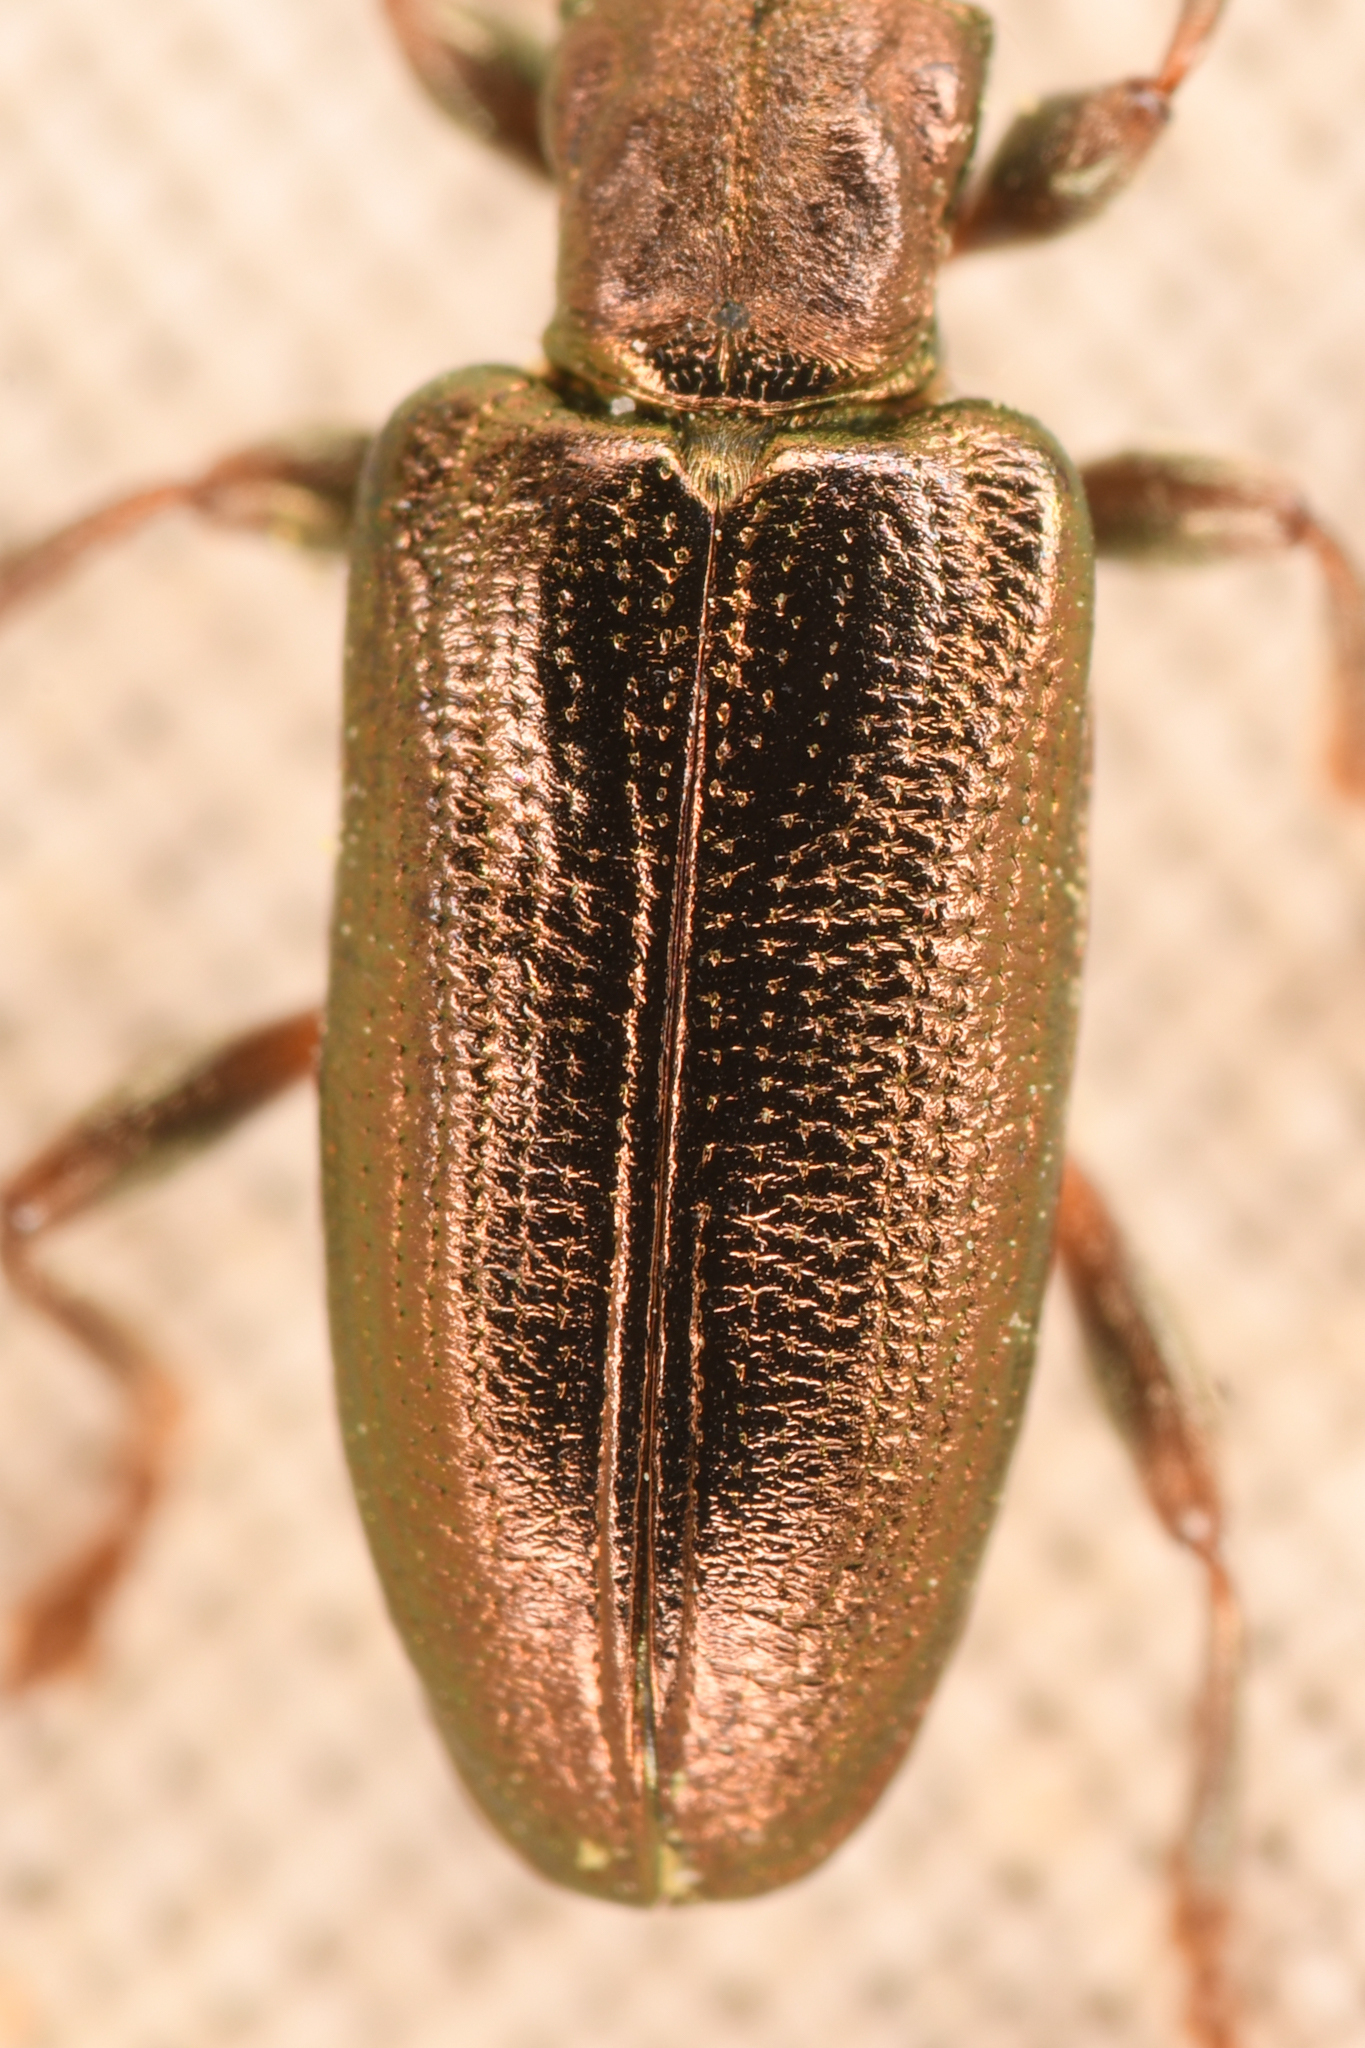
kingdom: Animalia
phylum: Arthropoda
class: Insecta
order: Coleoptera
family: Chrysomelidae
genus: Plateumaris
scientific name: Plateumaris neomexicana
